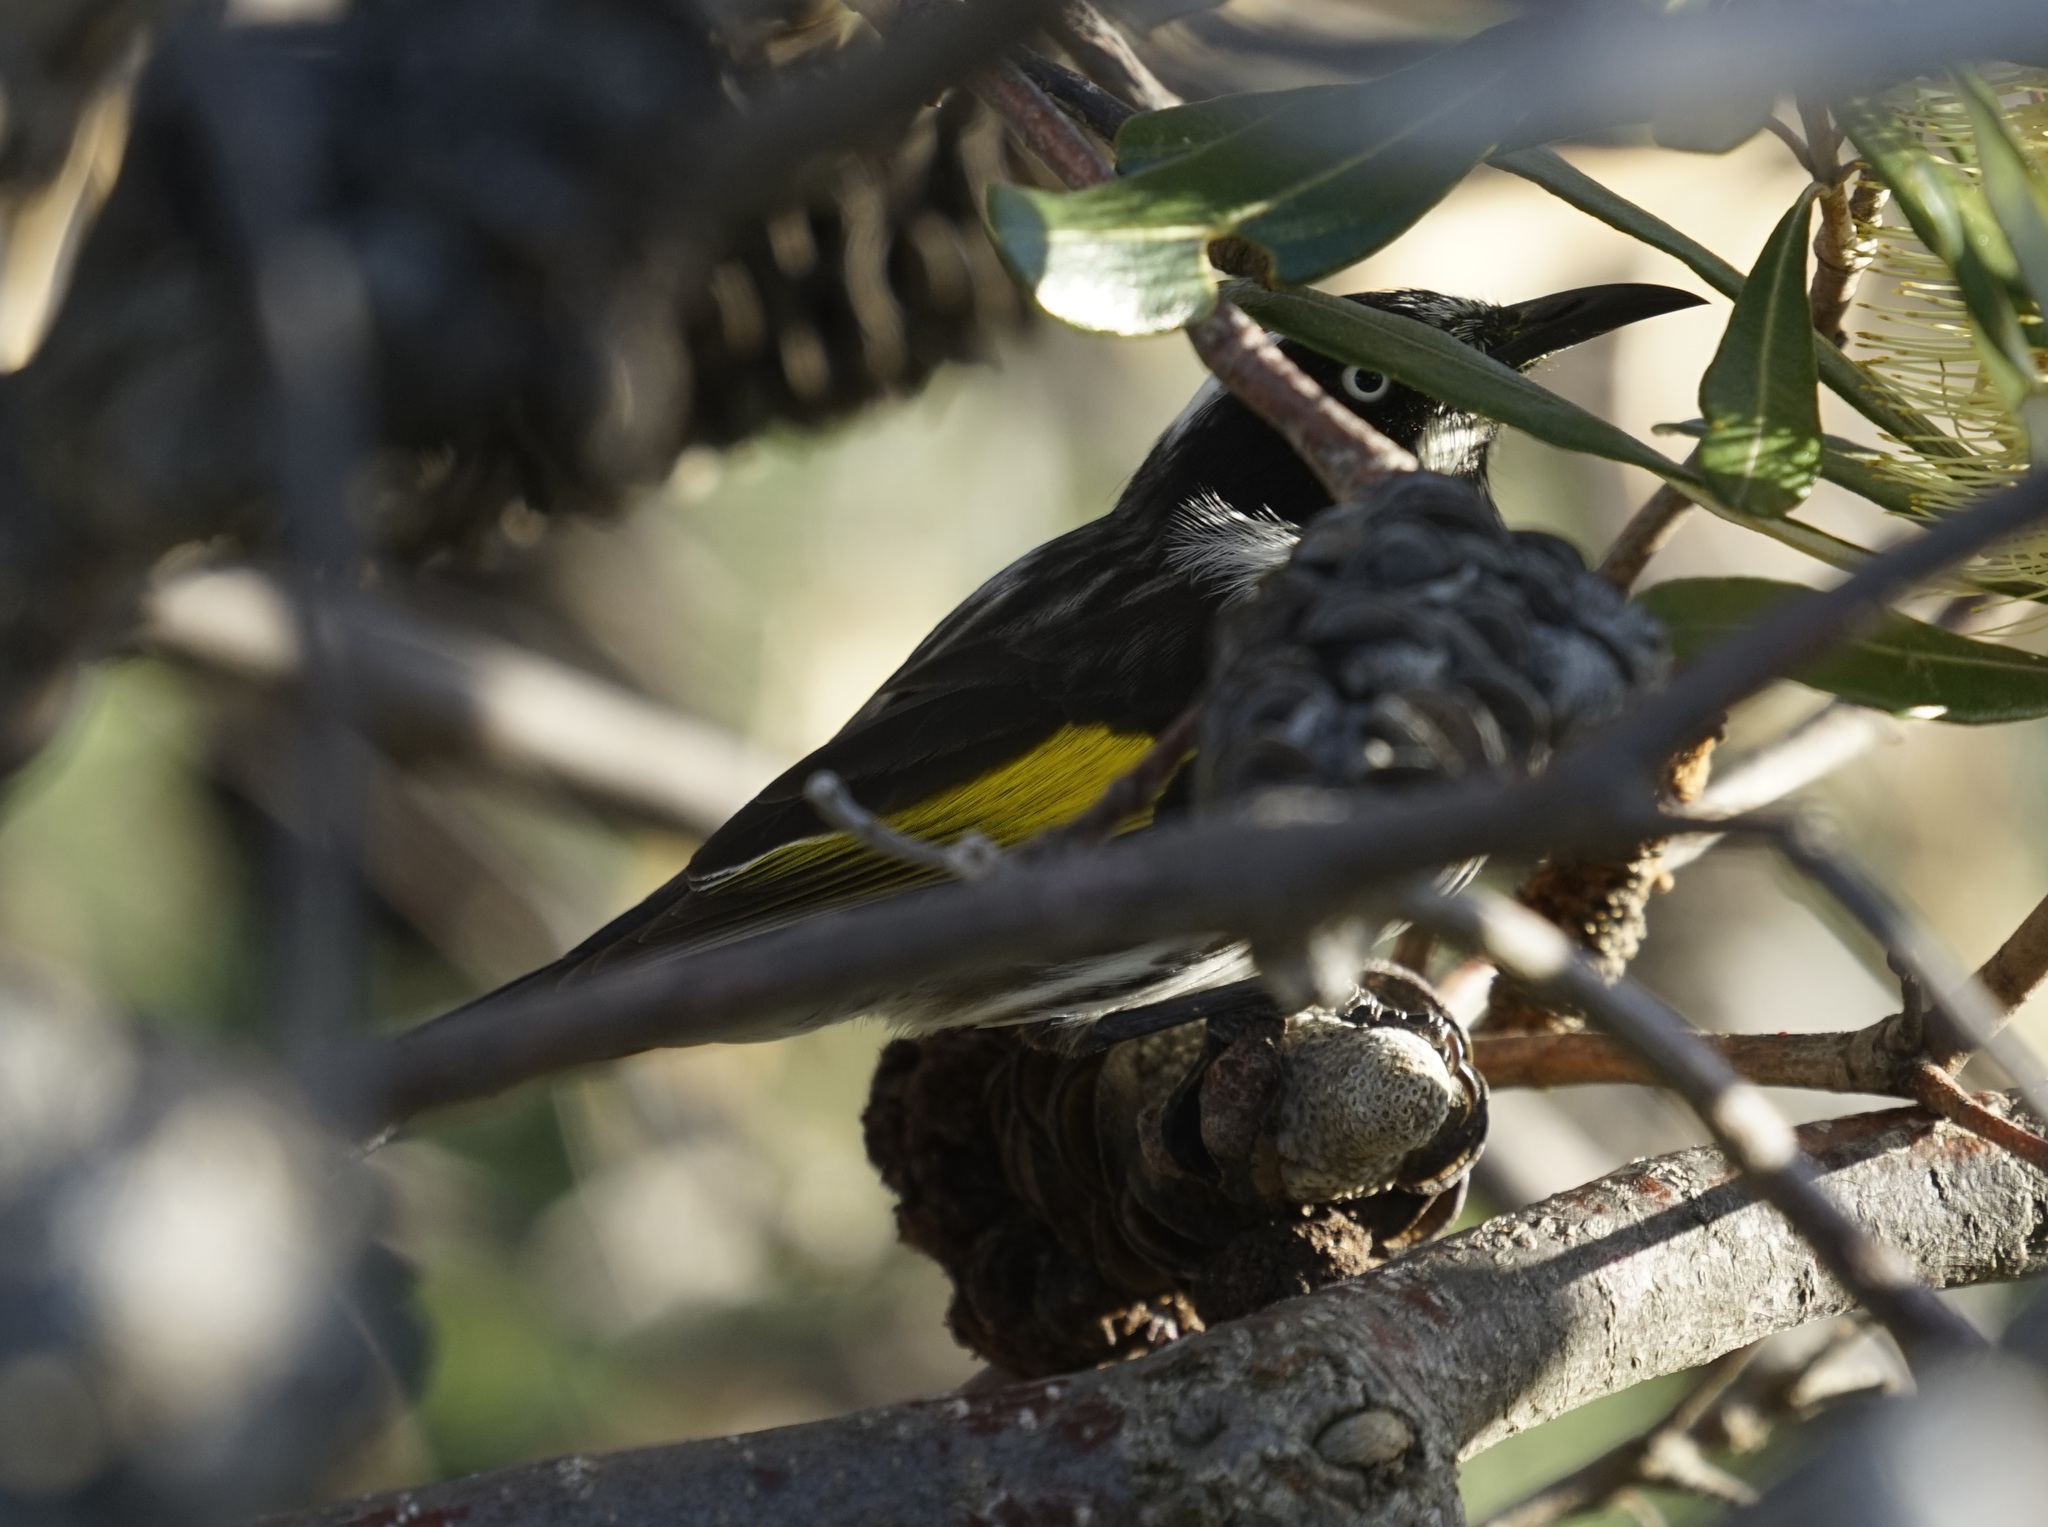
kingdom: Animalia
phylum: Chordata
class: Aves
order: Passeriformes
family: Meliphagidae
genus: Phylidonyris
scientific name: Phylidonyris novaehollandiae
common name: New holland honeyeater
